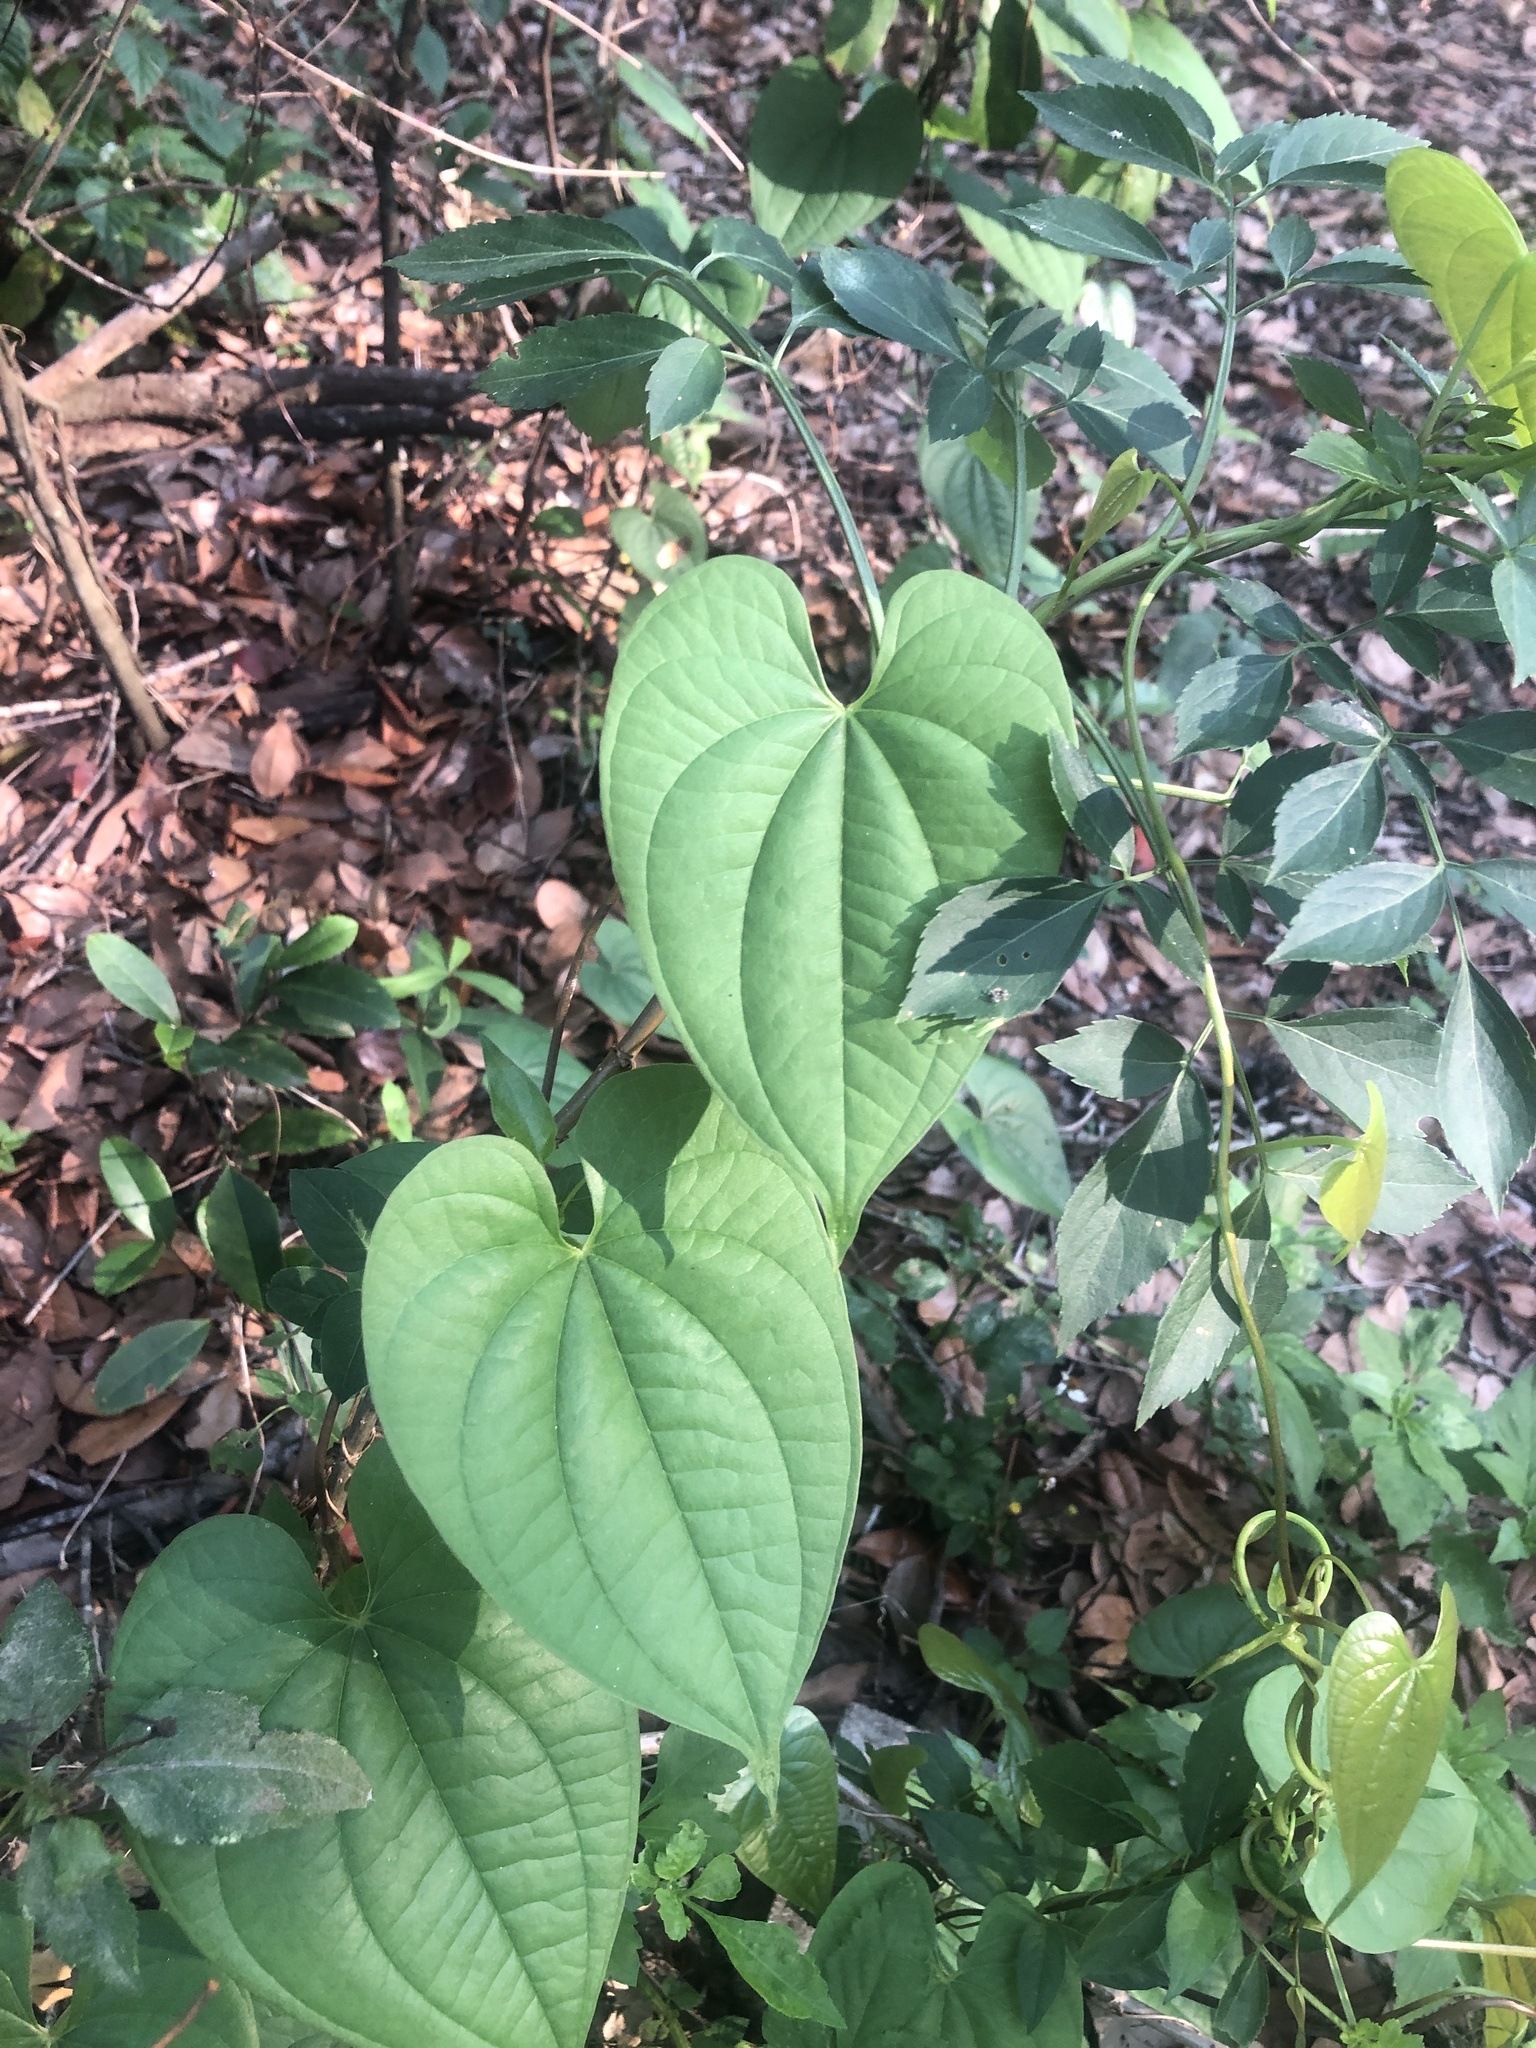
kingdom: Plantae
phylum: Tracheophyta
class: Liliopsida
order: Dioscoreales
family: Dioscoreaceae
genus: Dioscorea
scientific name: Dioscorea bulbifera
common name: Air yam
